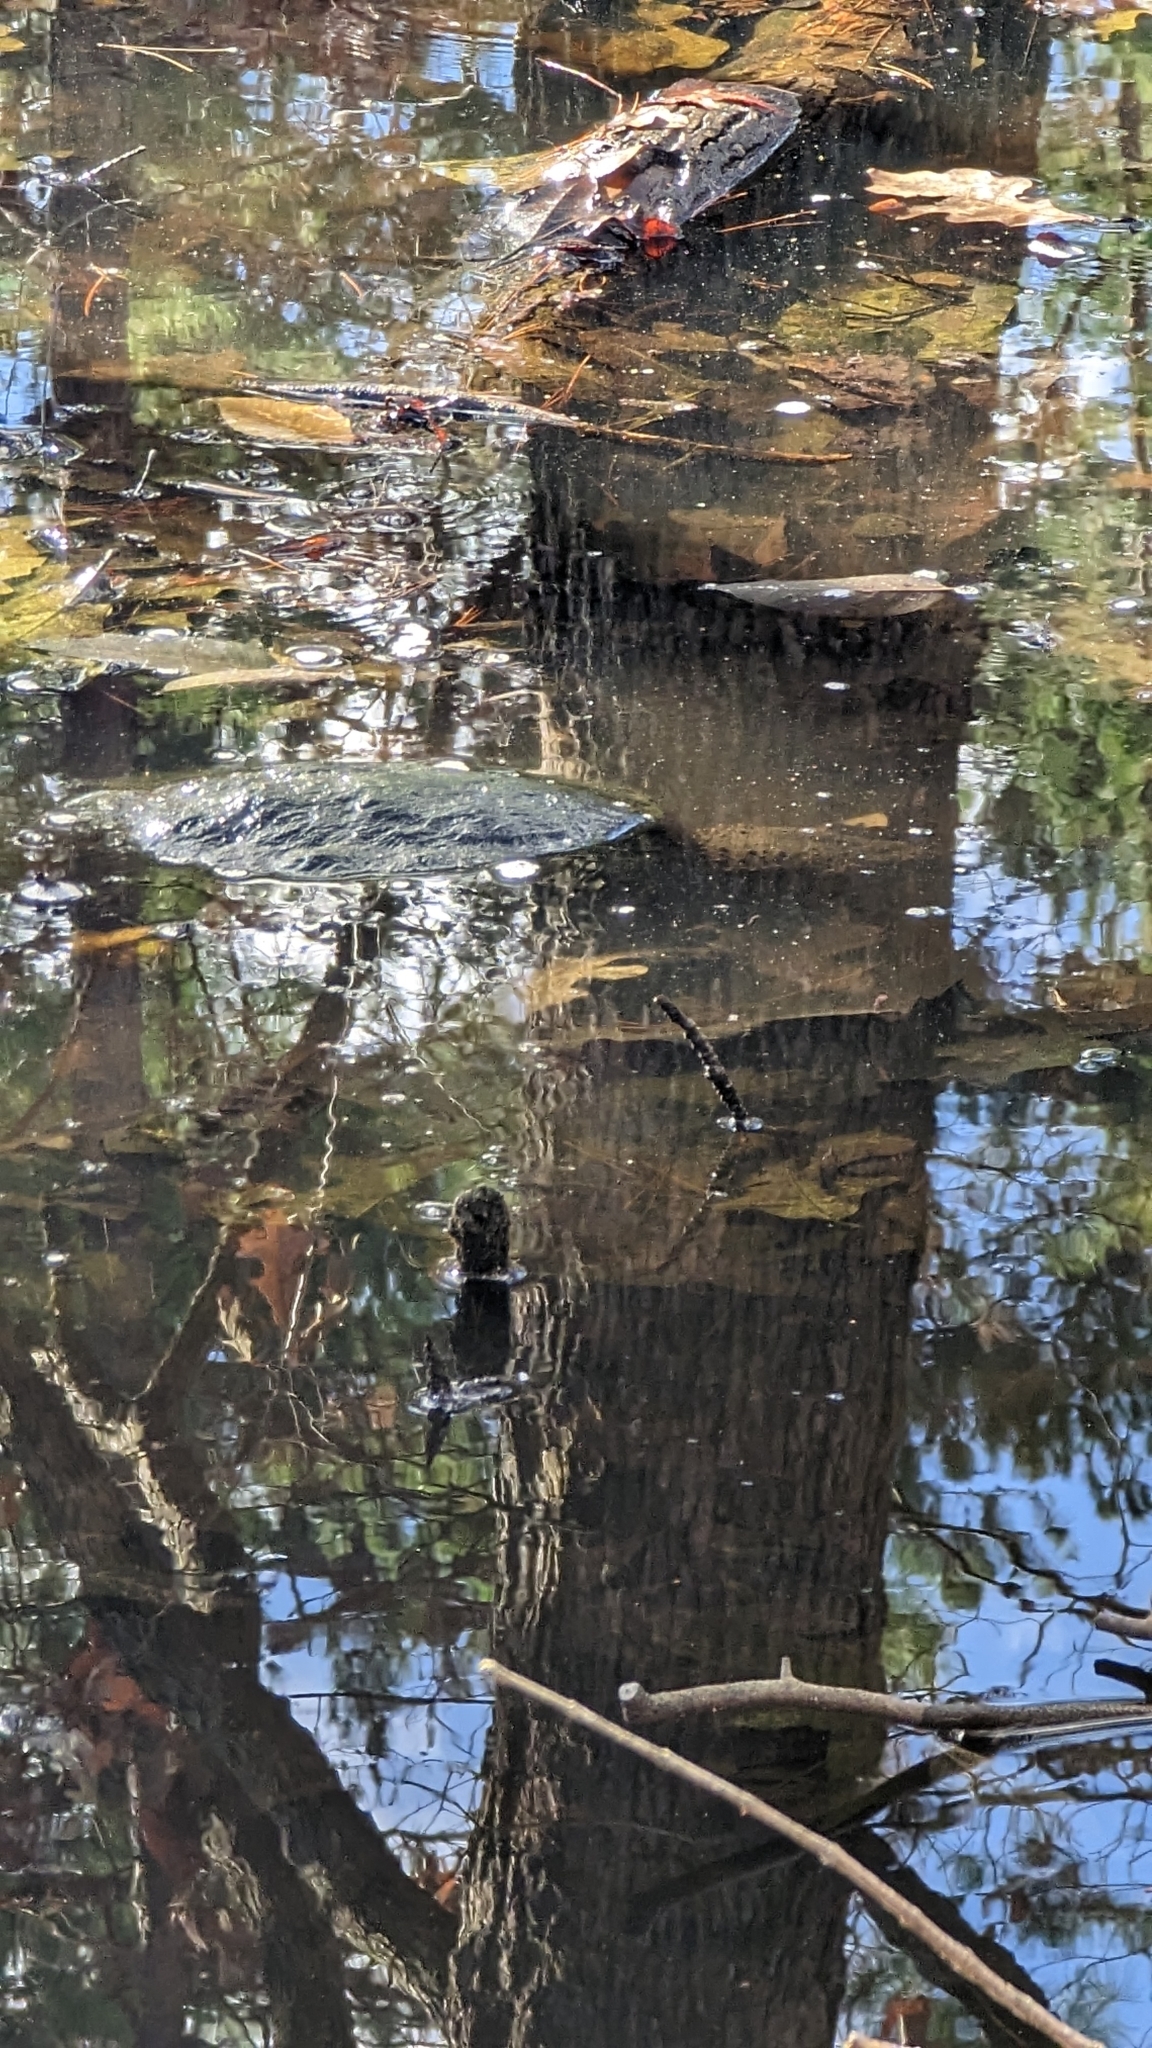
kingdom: Animalia
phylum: Chordata
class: Testudines
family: Chelydridae
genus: Chelydra
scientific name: Chelydra serpentina
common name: Common snapping turtle
